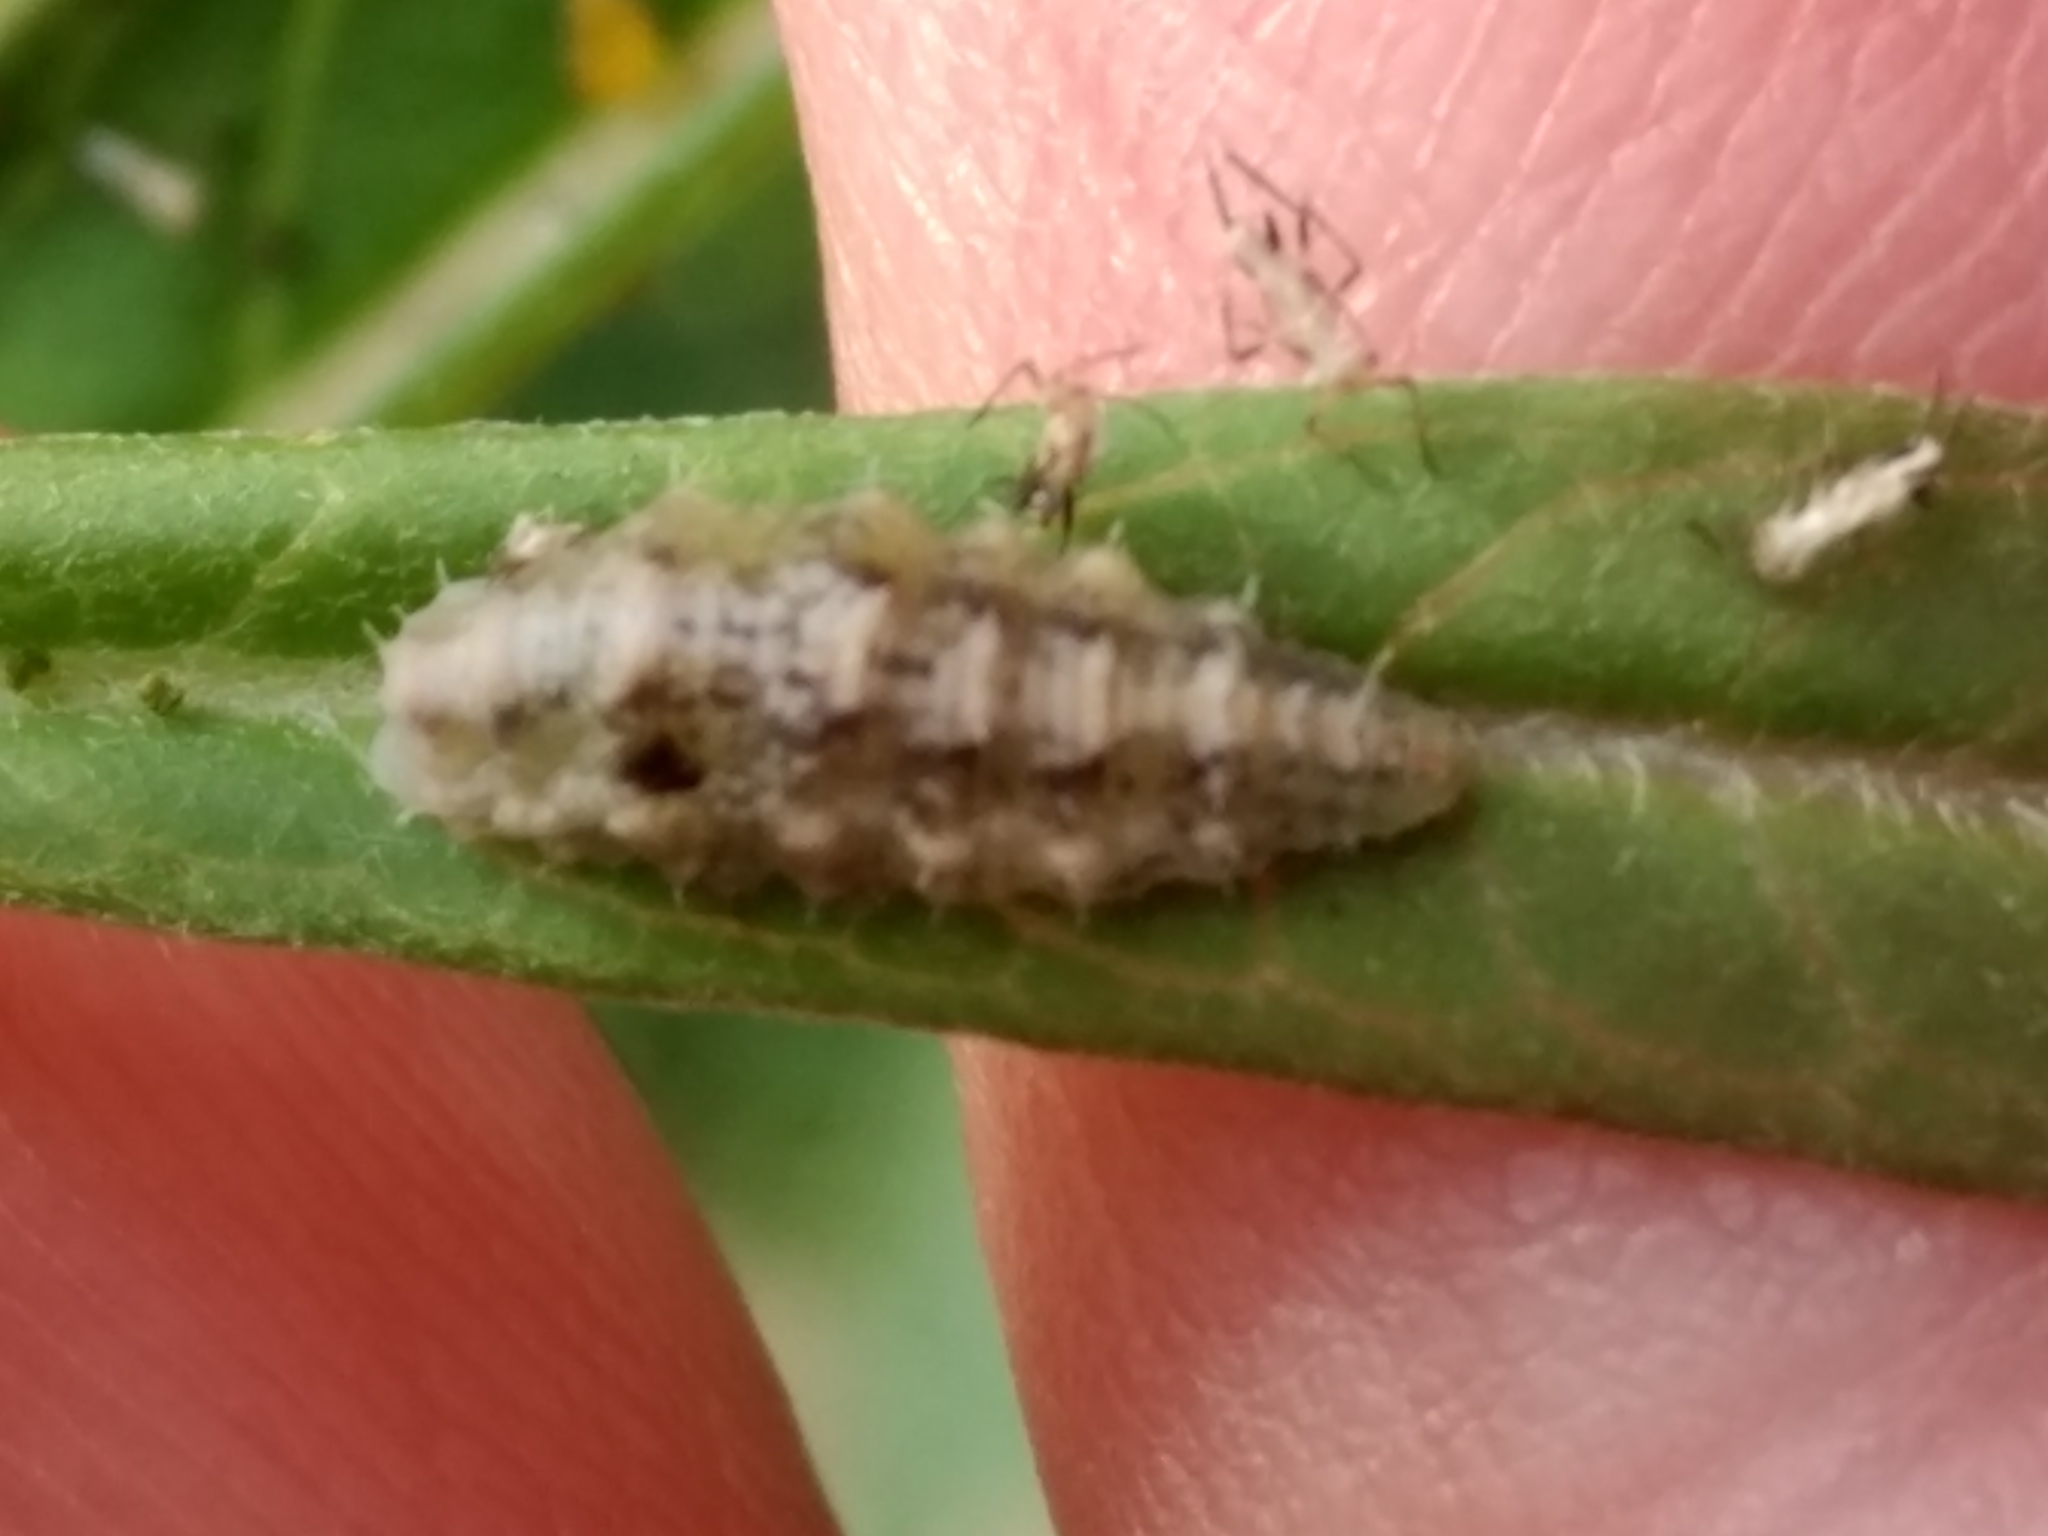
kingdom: Animalia
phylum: Arthropoda
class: Insecta
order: Diptera
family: Syrphidae
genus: Dioprosopa
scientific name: Dioprosopa clavatus
